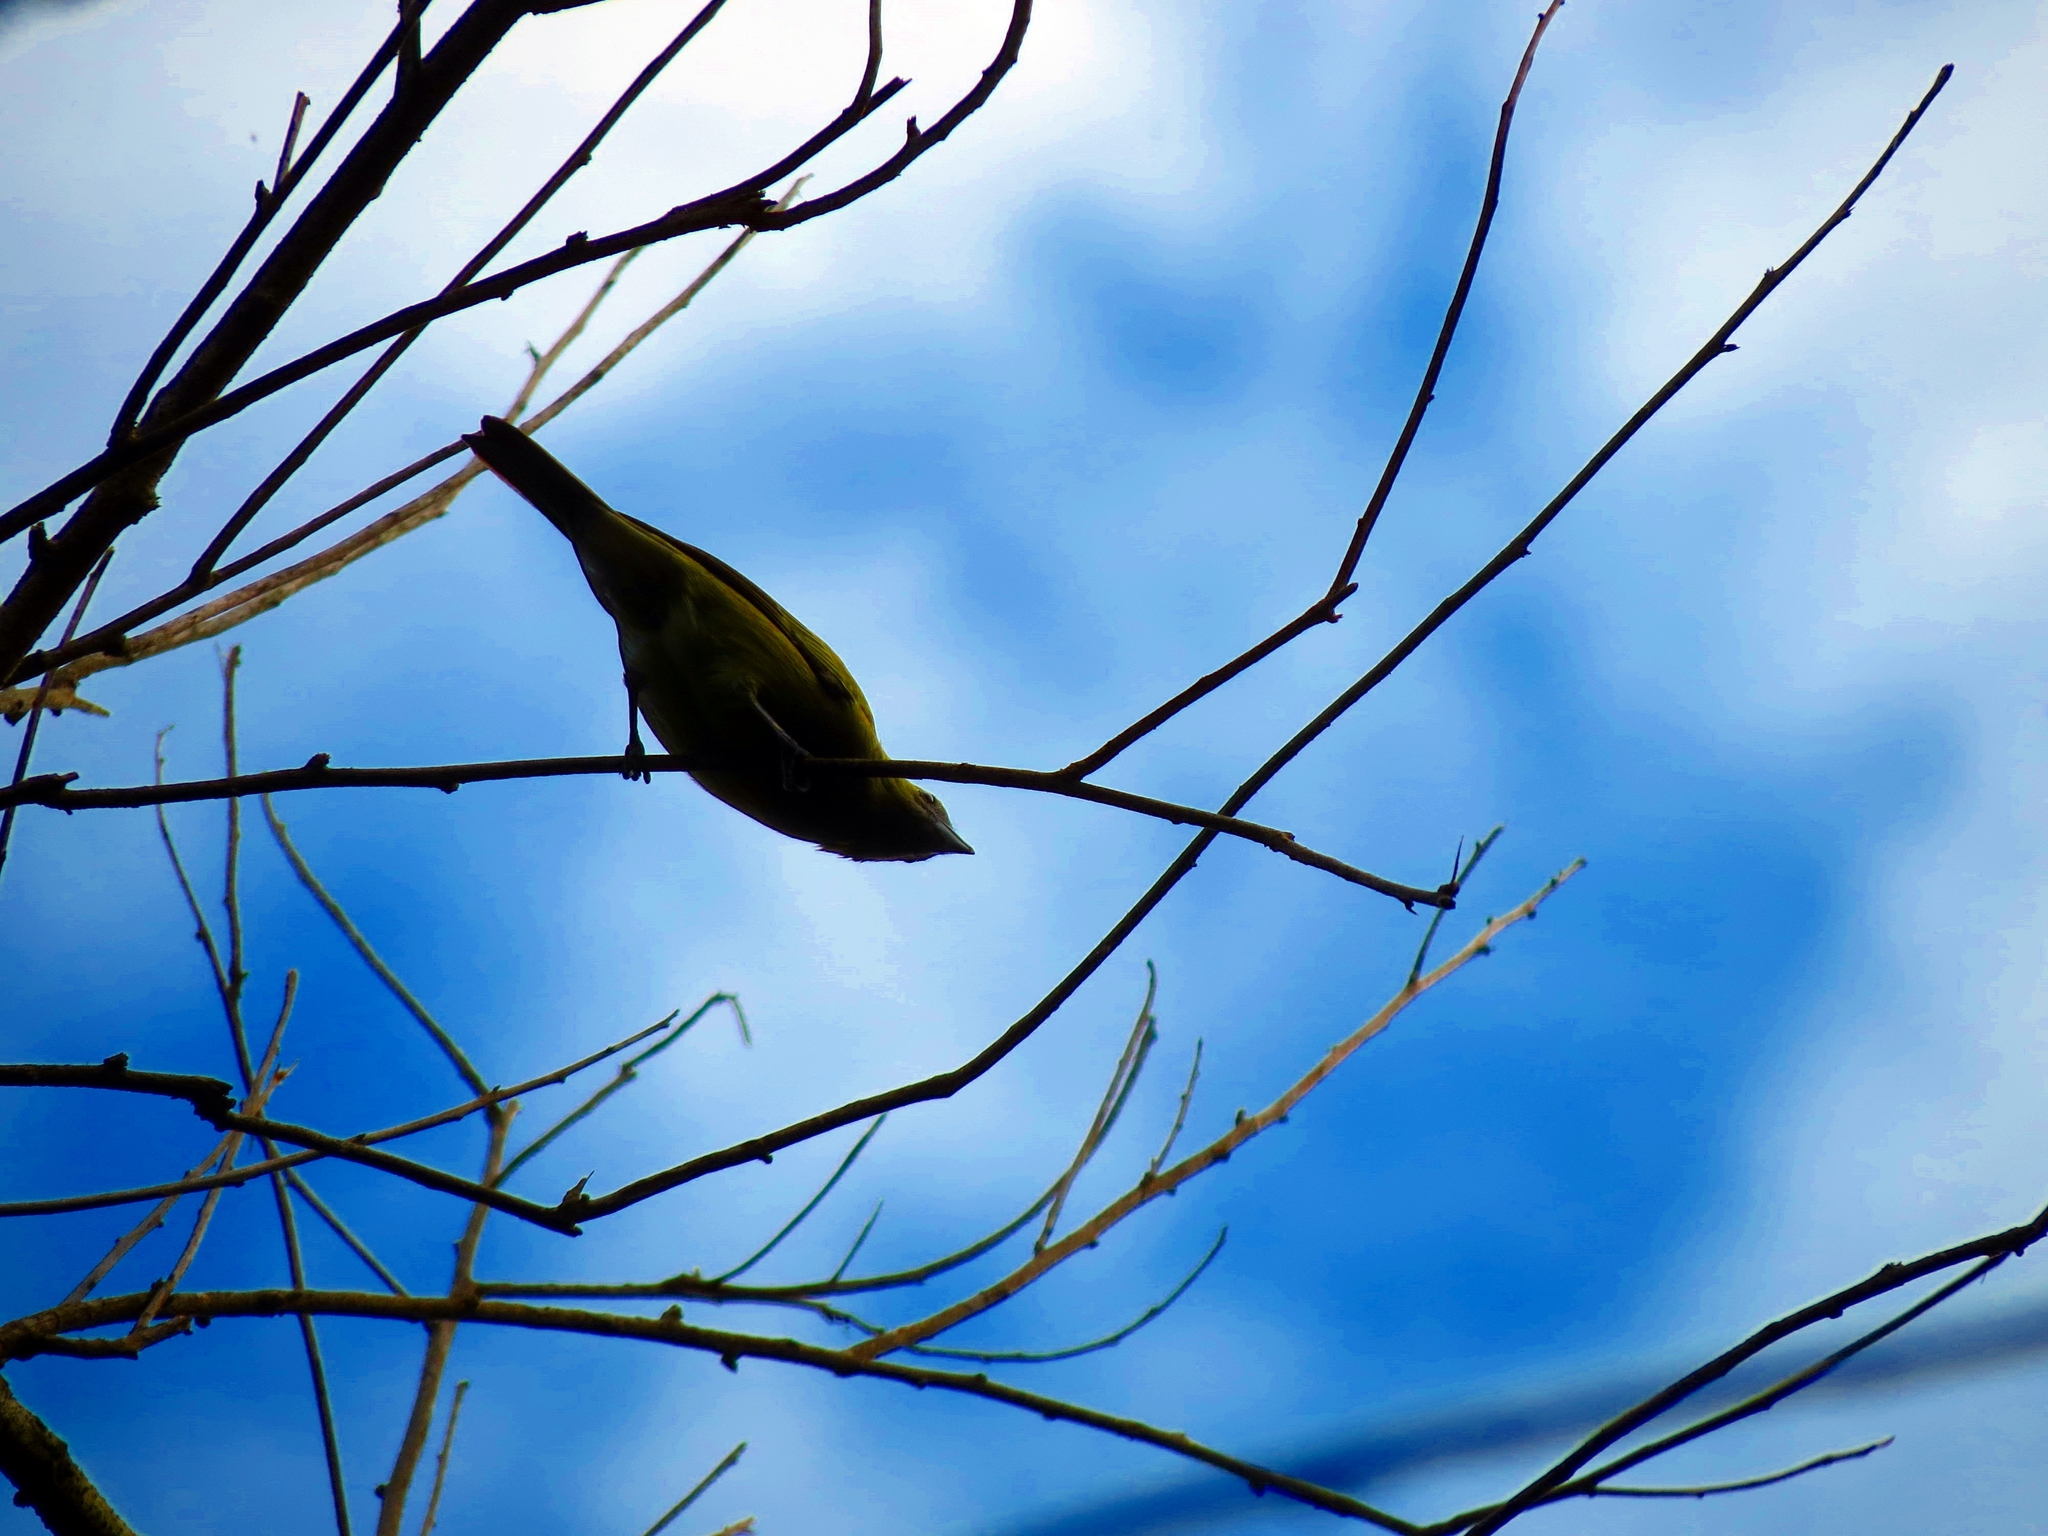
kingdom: Animalia
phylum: Chordata
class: Aves
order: Passeriformes
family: Thraupidae
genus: Thraupis
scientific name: Thraupis palmarum
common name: Palm tanager
